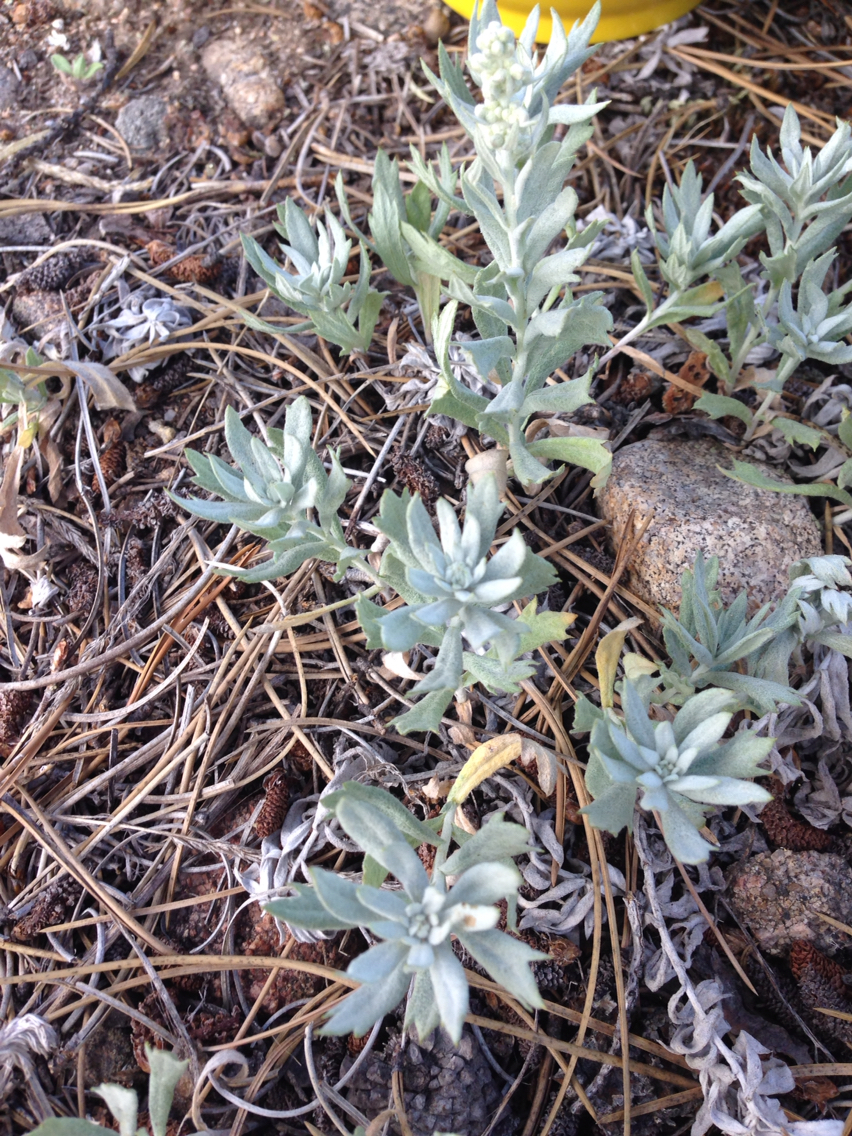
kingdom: Plantae
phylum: Tracheophyta
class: Magnoliopsida
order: Asterales
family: Asteraceae
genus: Artemisia
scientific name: Artemisia ludoviciana
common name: Western mugwort
